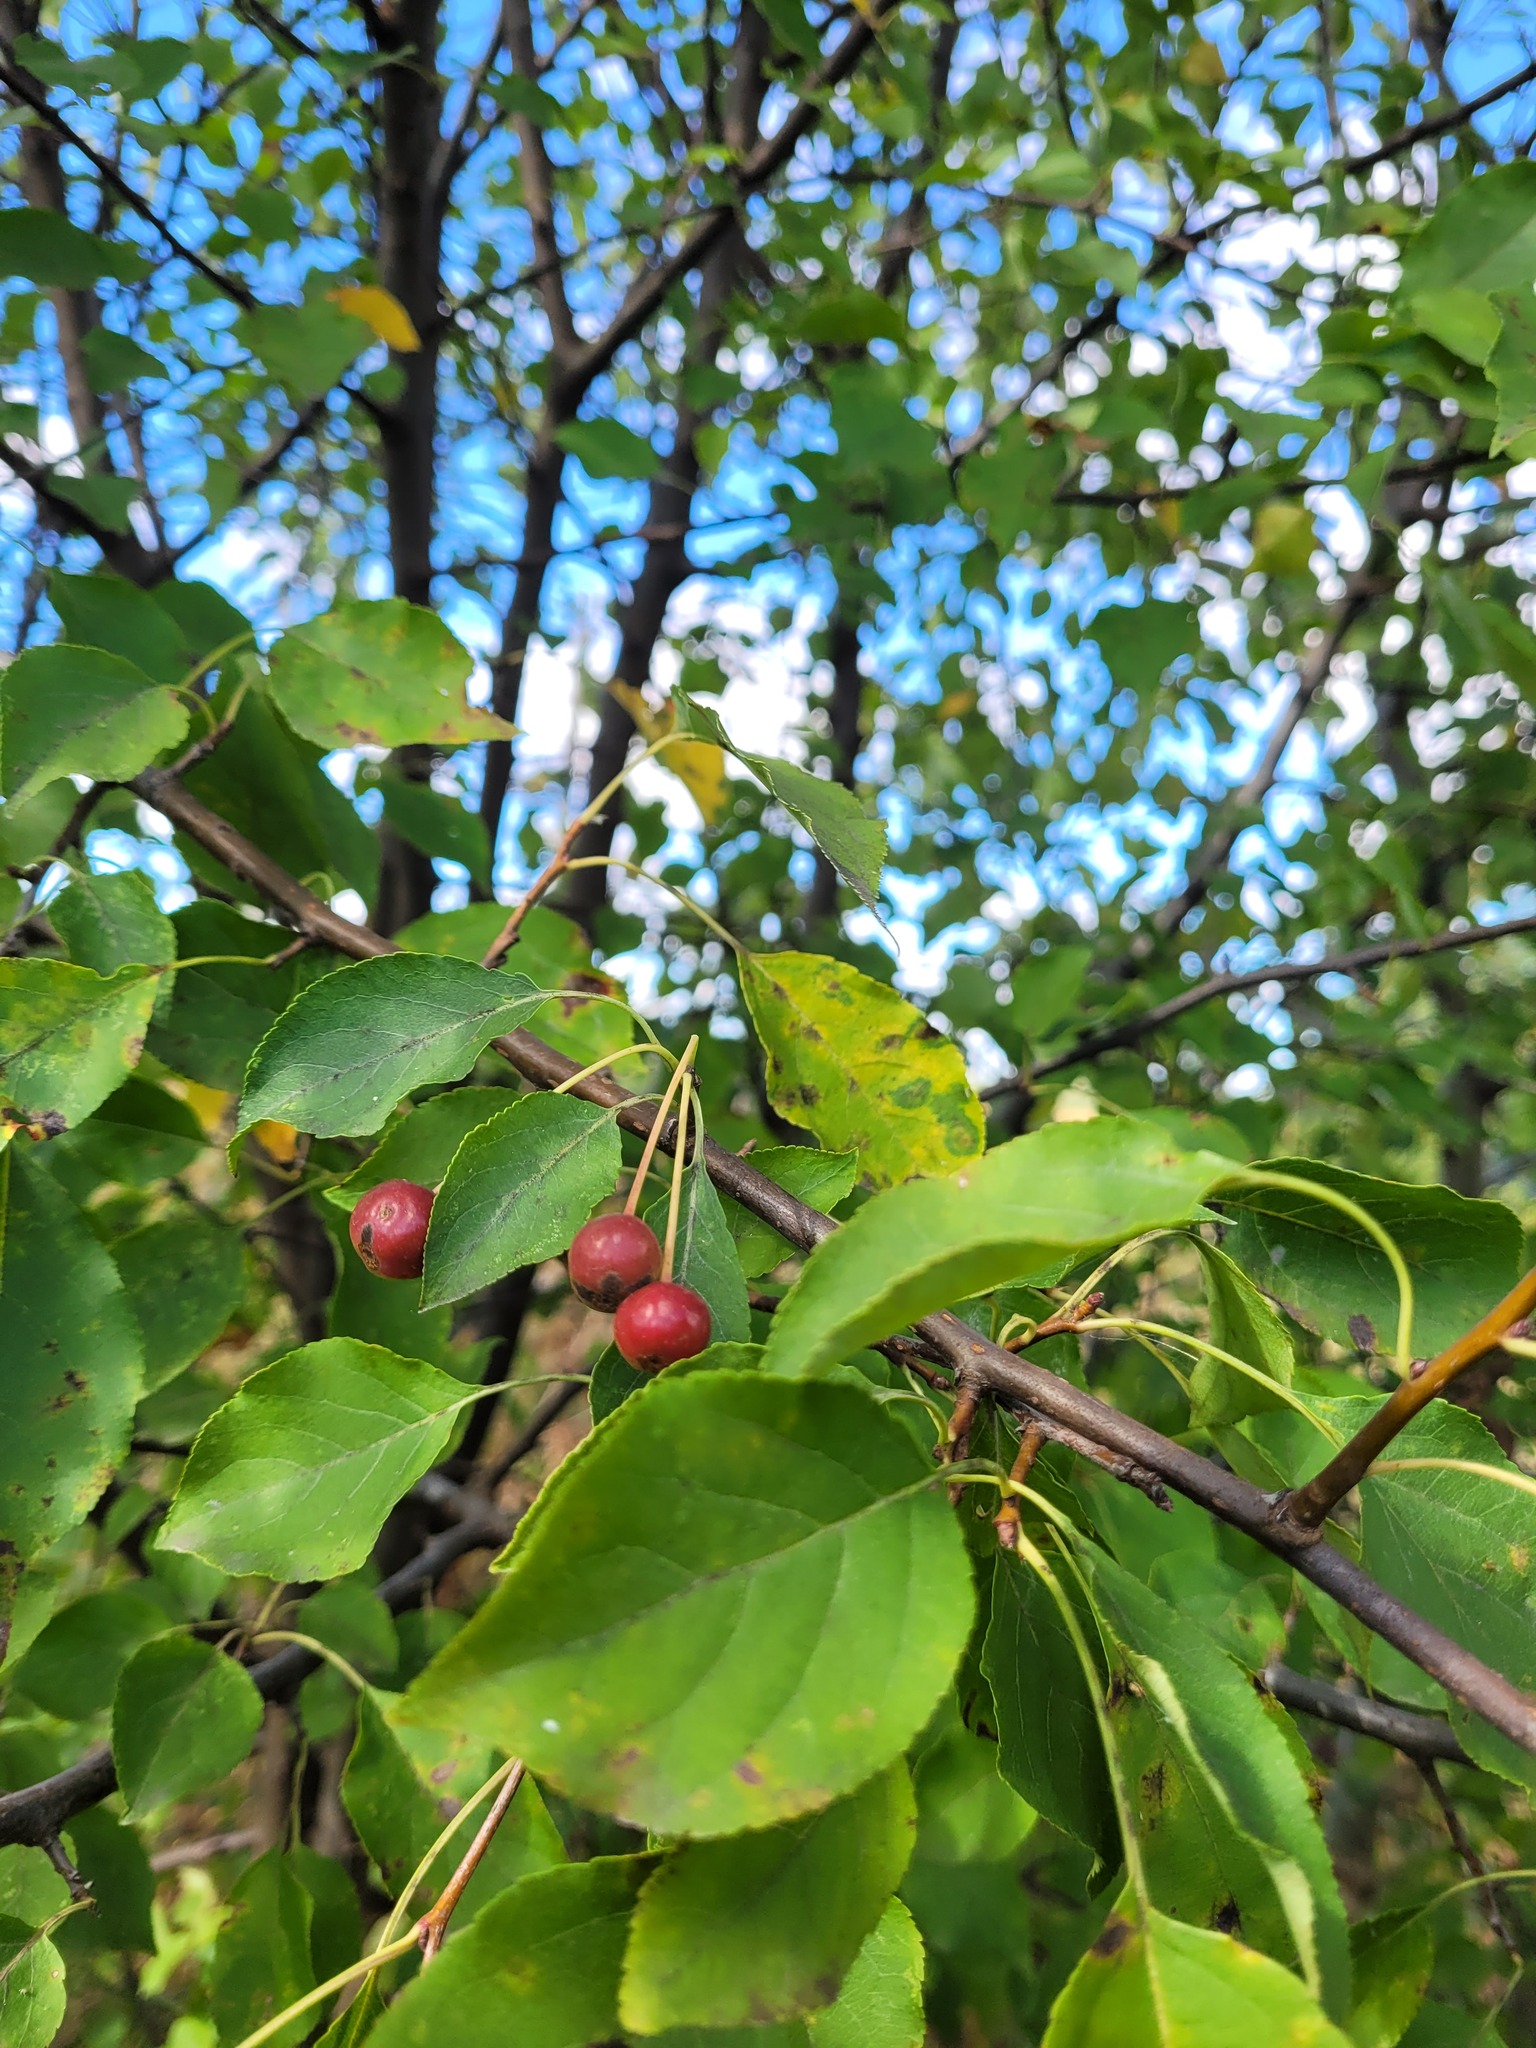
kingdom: Plantae
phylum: Tracheophyta
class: Magnoliopsida
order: Rosales
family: Rosaceae
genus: Malus
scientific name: Malus baccata
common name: Siberian crab
